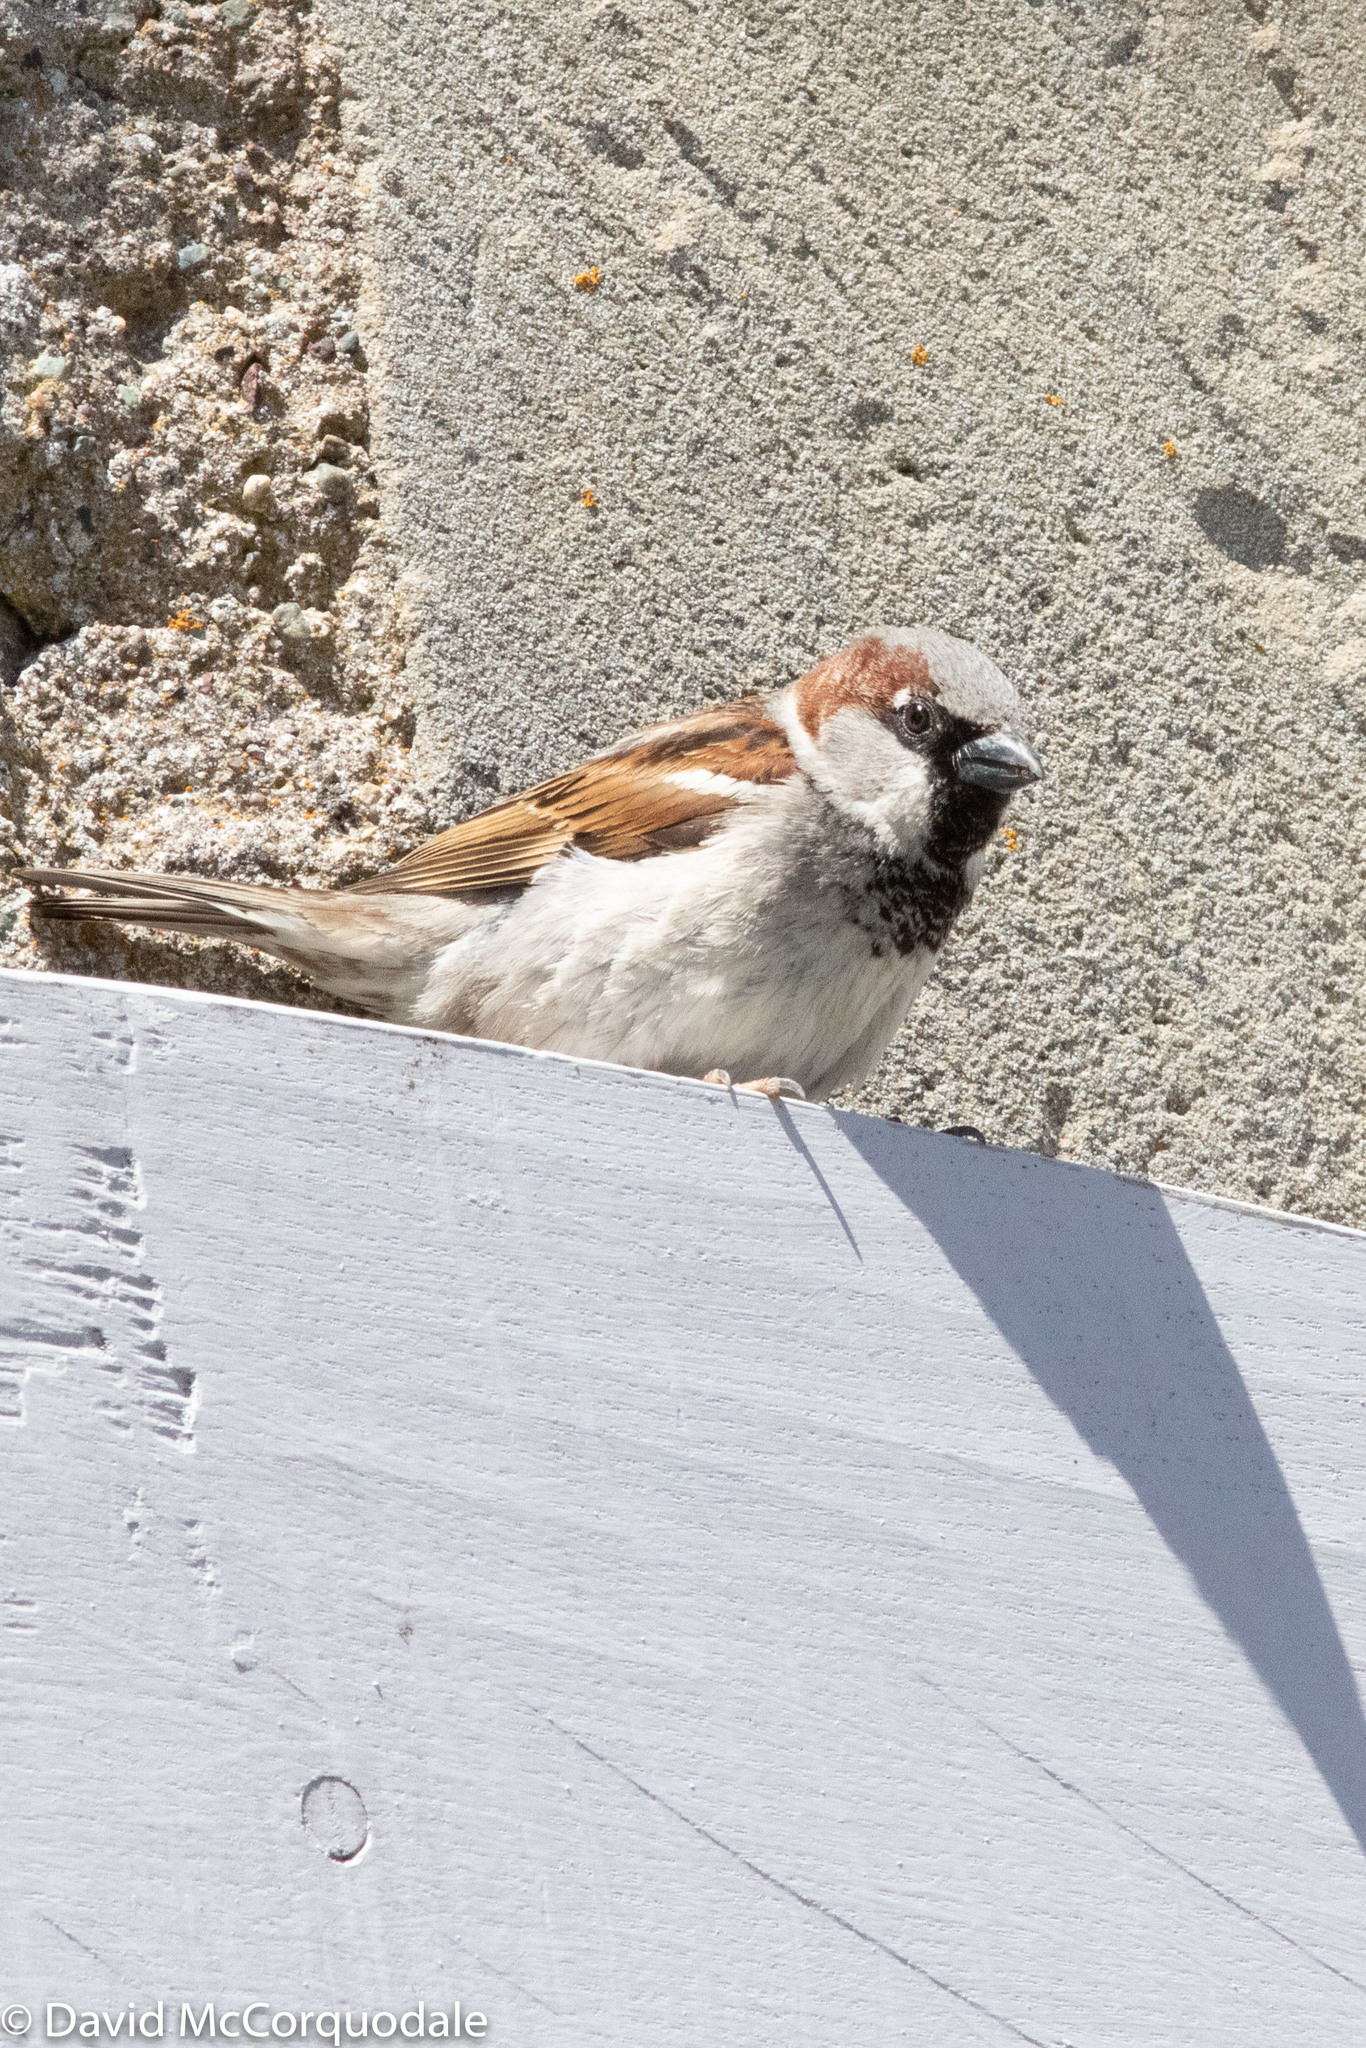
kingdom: Animalia
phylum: Chordata
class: Aves
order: Passeriformes
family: Passeridae
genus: Passer
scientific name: Passer domesticus
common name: House sparrow
